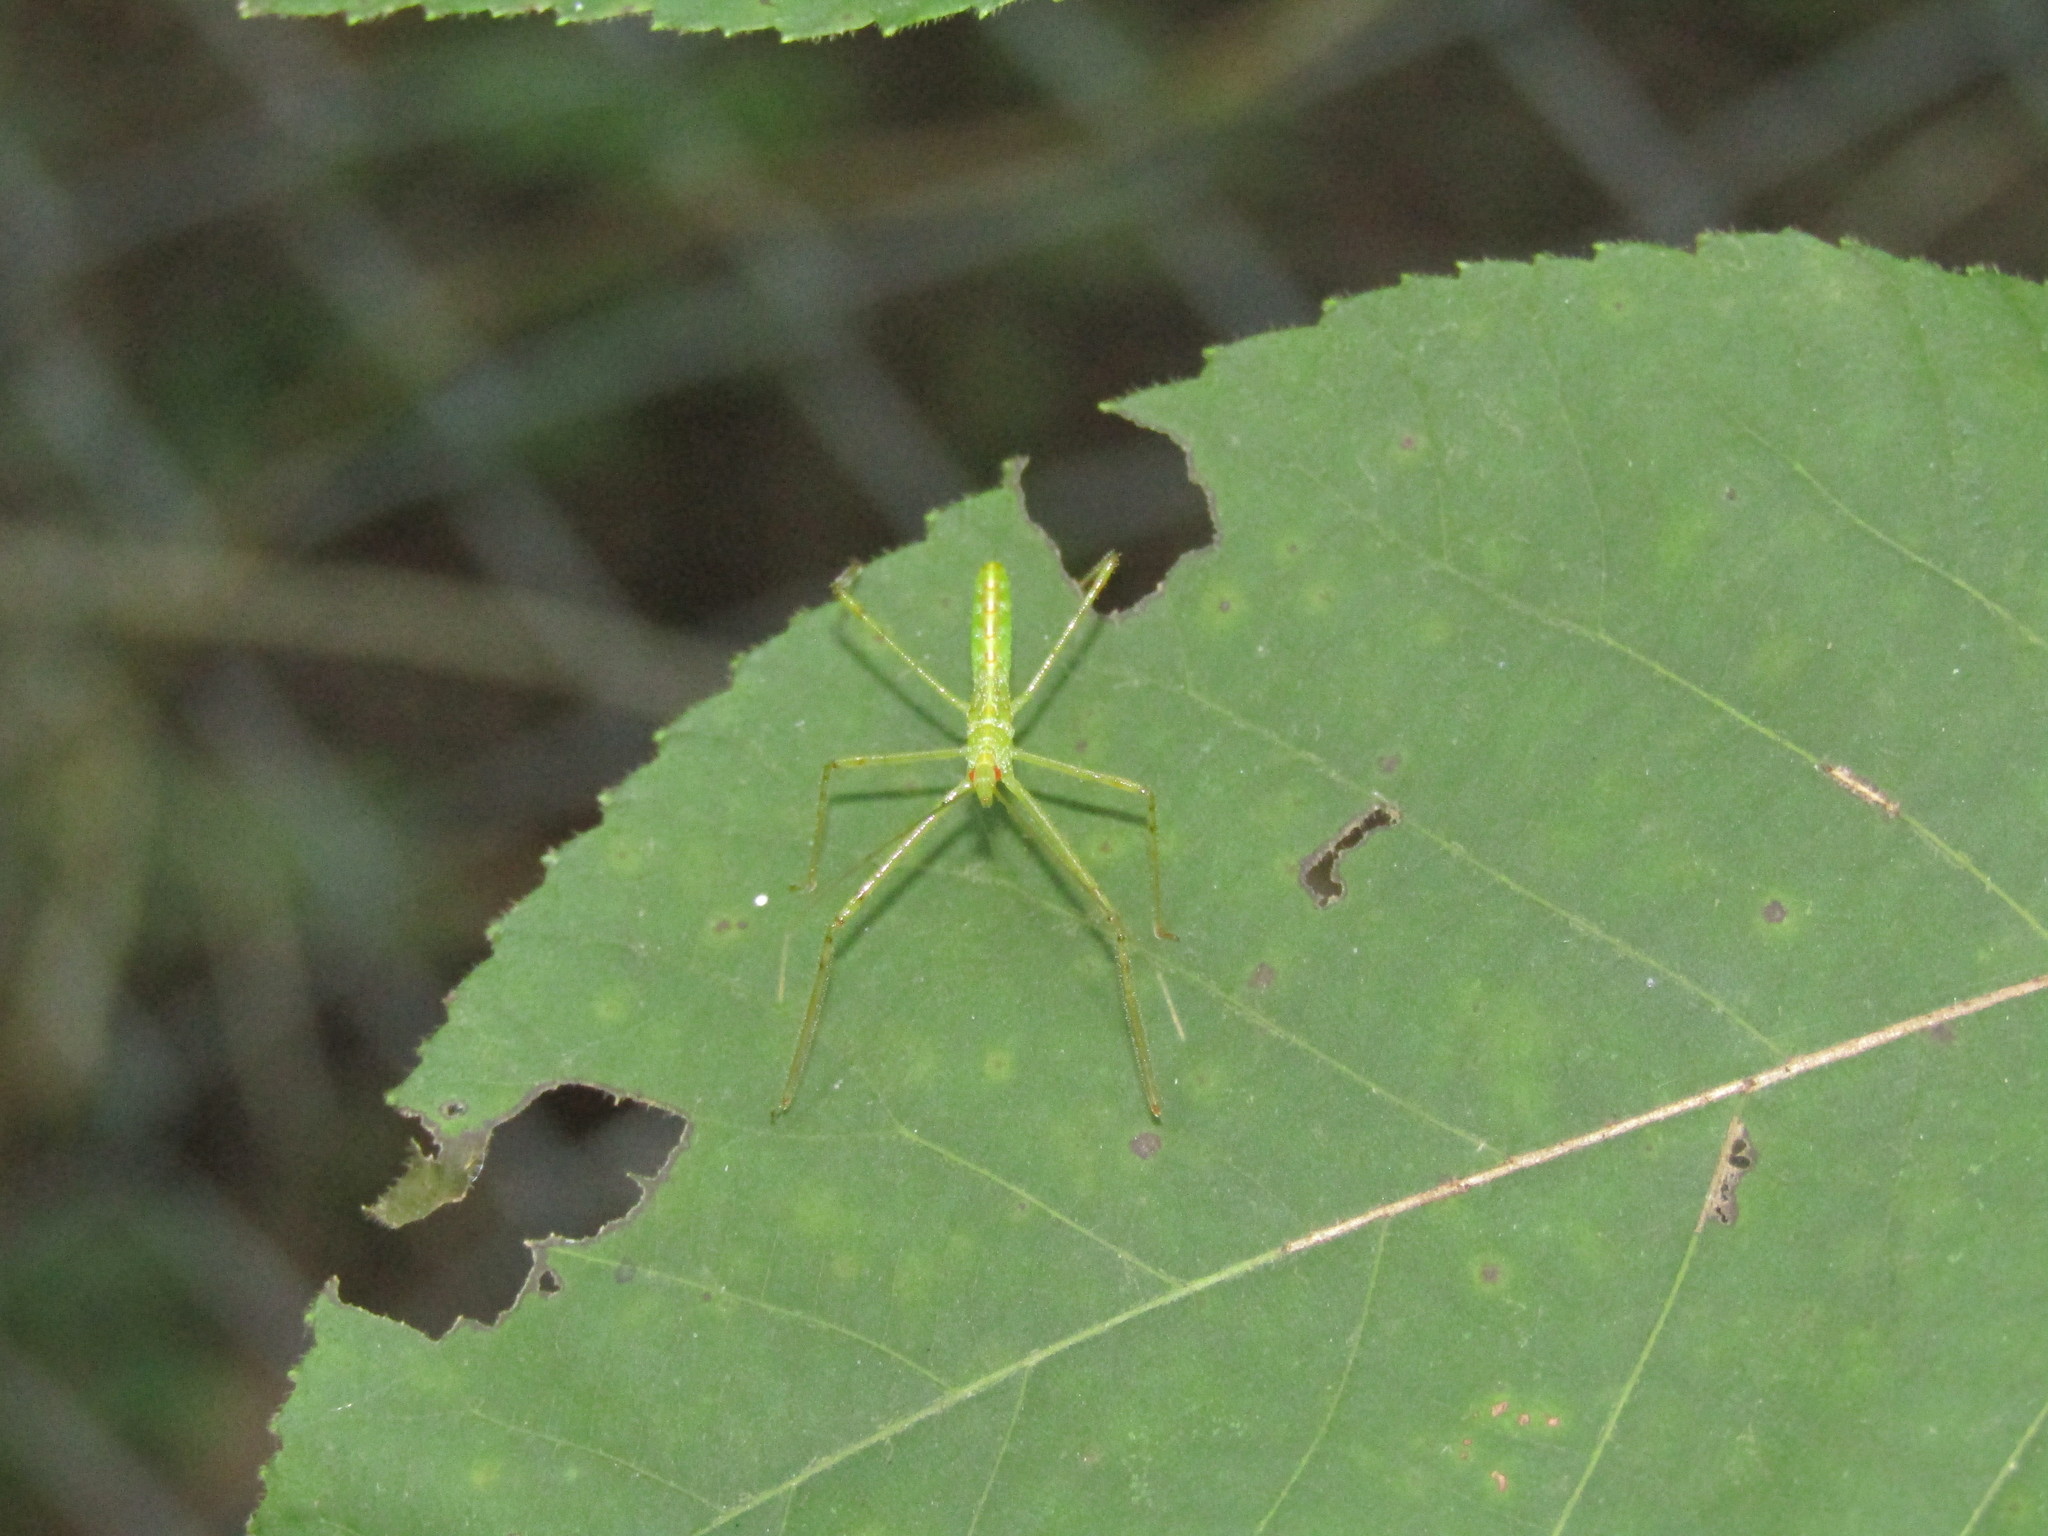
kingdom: Animalia
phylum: Arthropoda
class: Insecta
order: Hemiptera
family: Reduviidae
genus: Zelus
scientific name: Zelus luridus
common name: Pale green assassin bug
